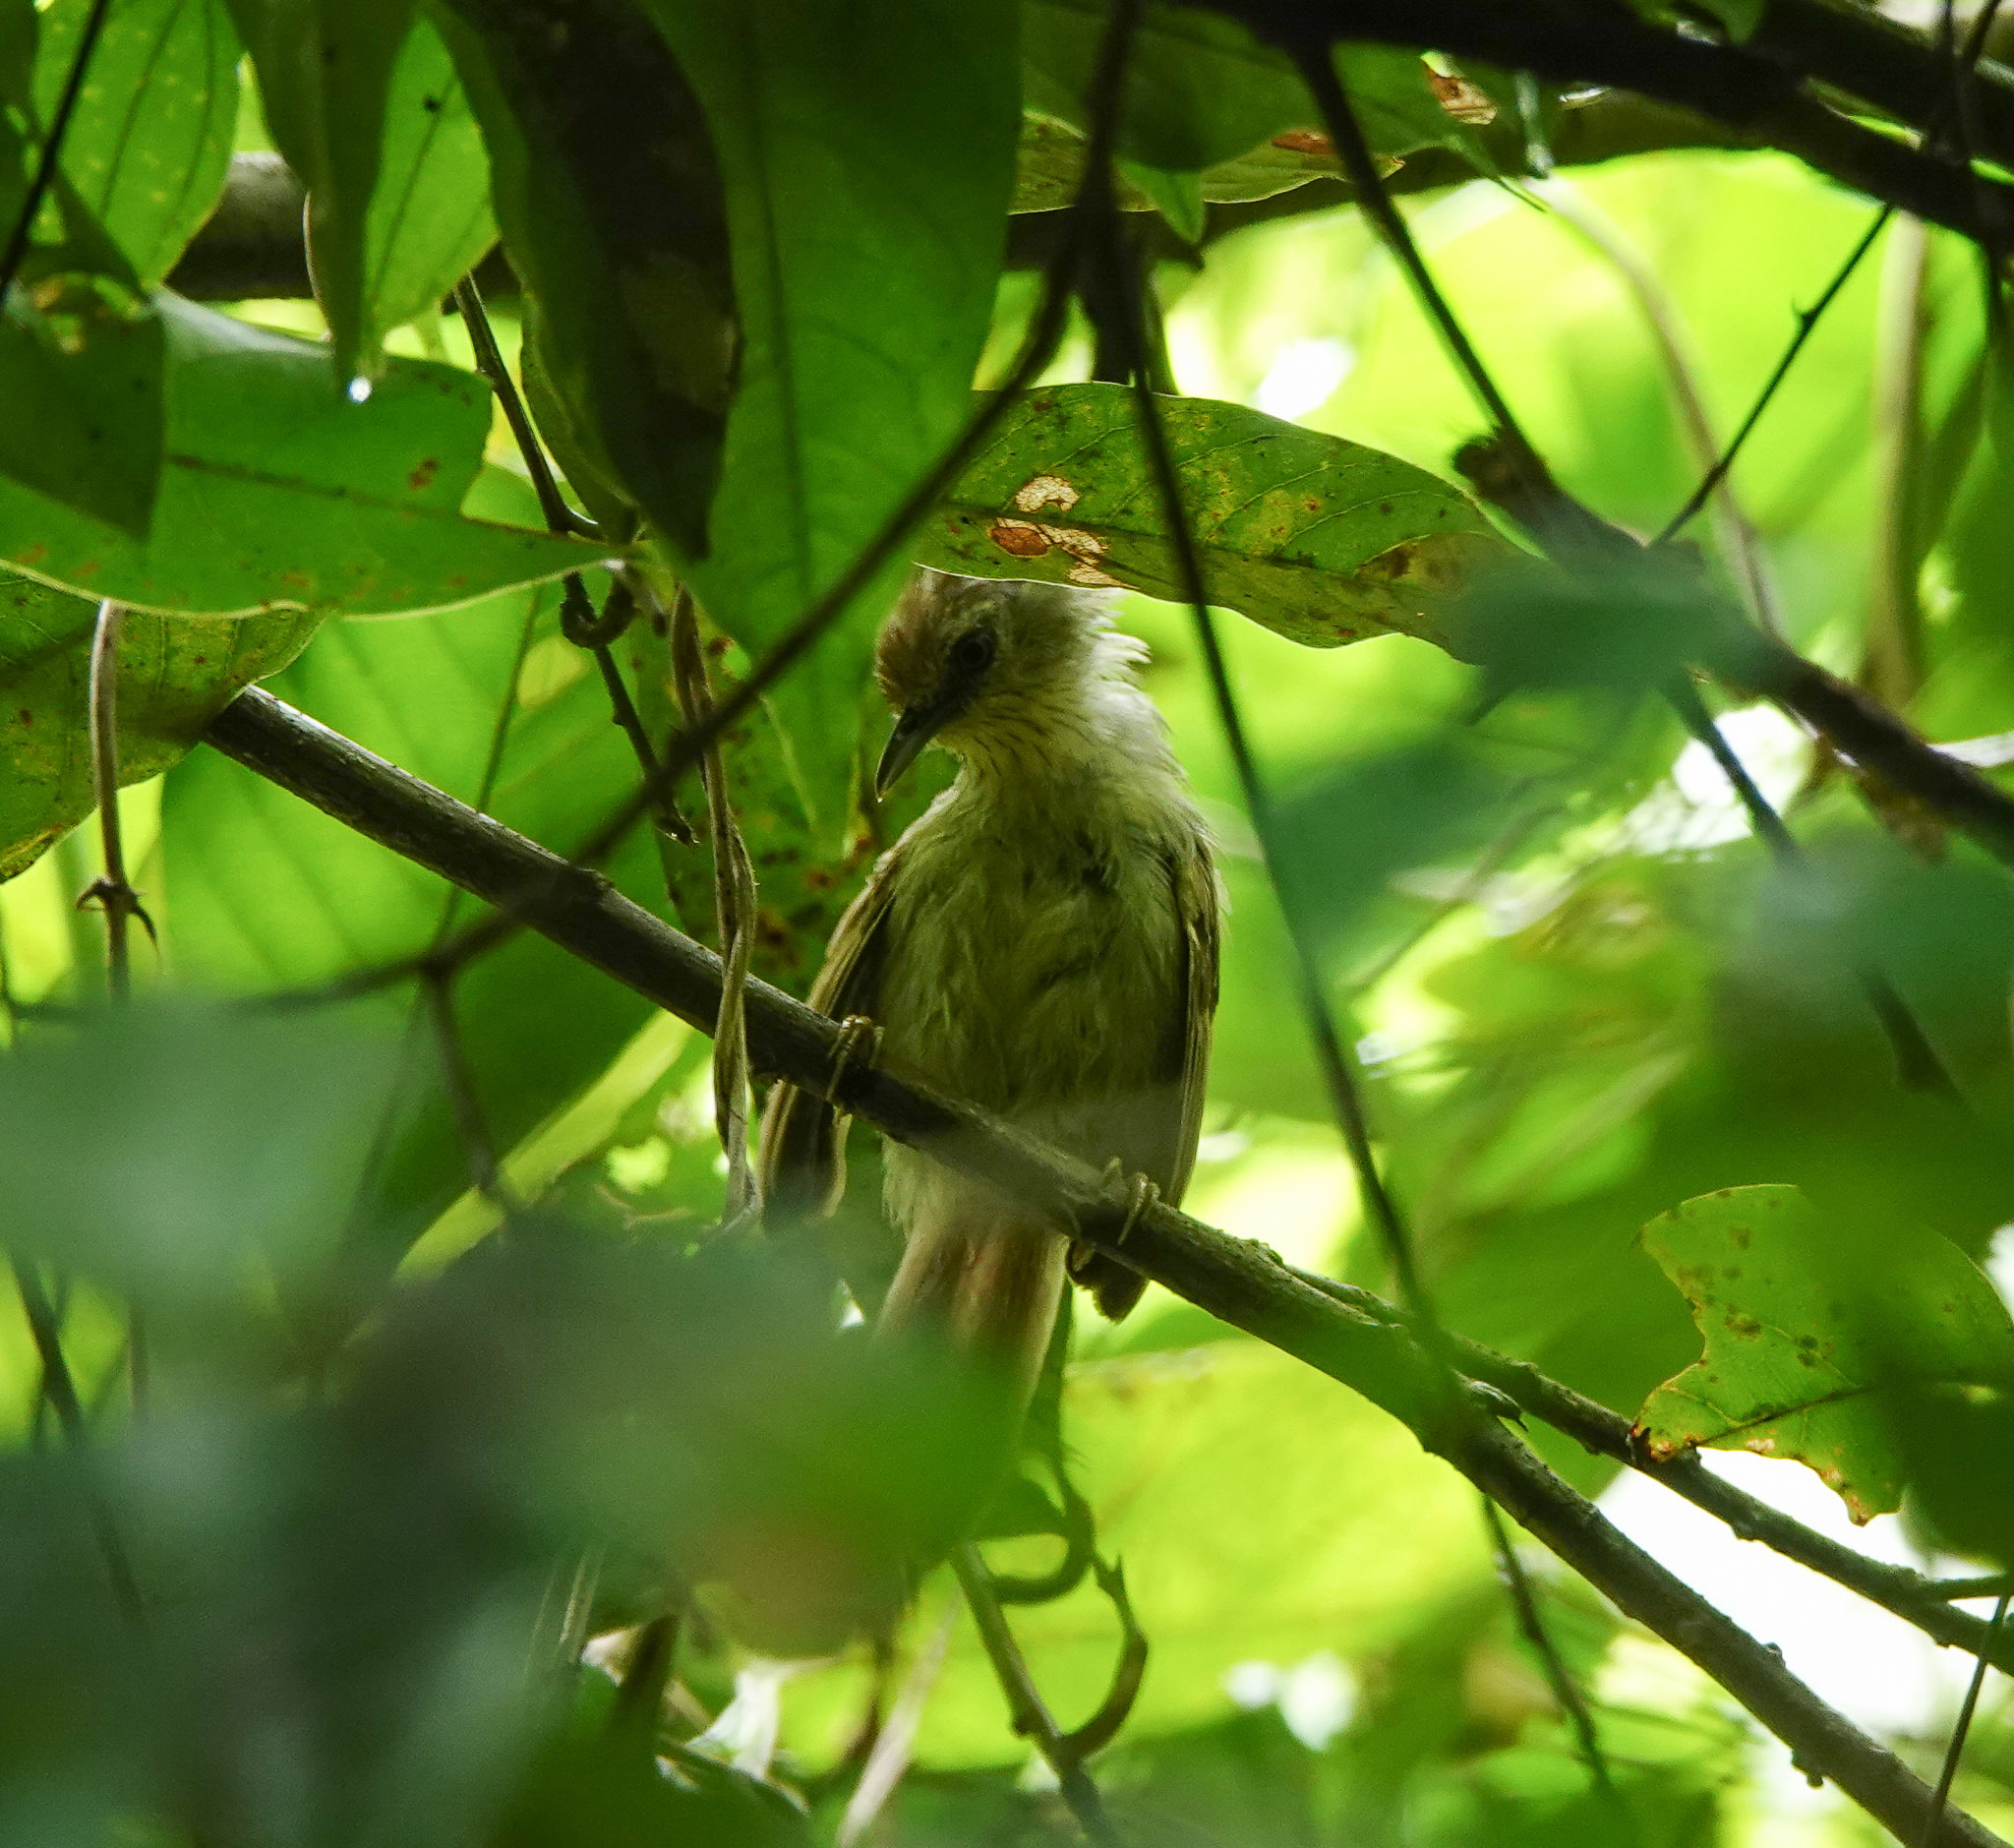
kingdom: Animalia
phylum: Chordata
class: Aves
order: Passeriformes
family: Timaliidae
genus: Macronus
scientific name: Macronus gularis
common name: Striped tit-babbler
